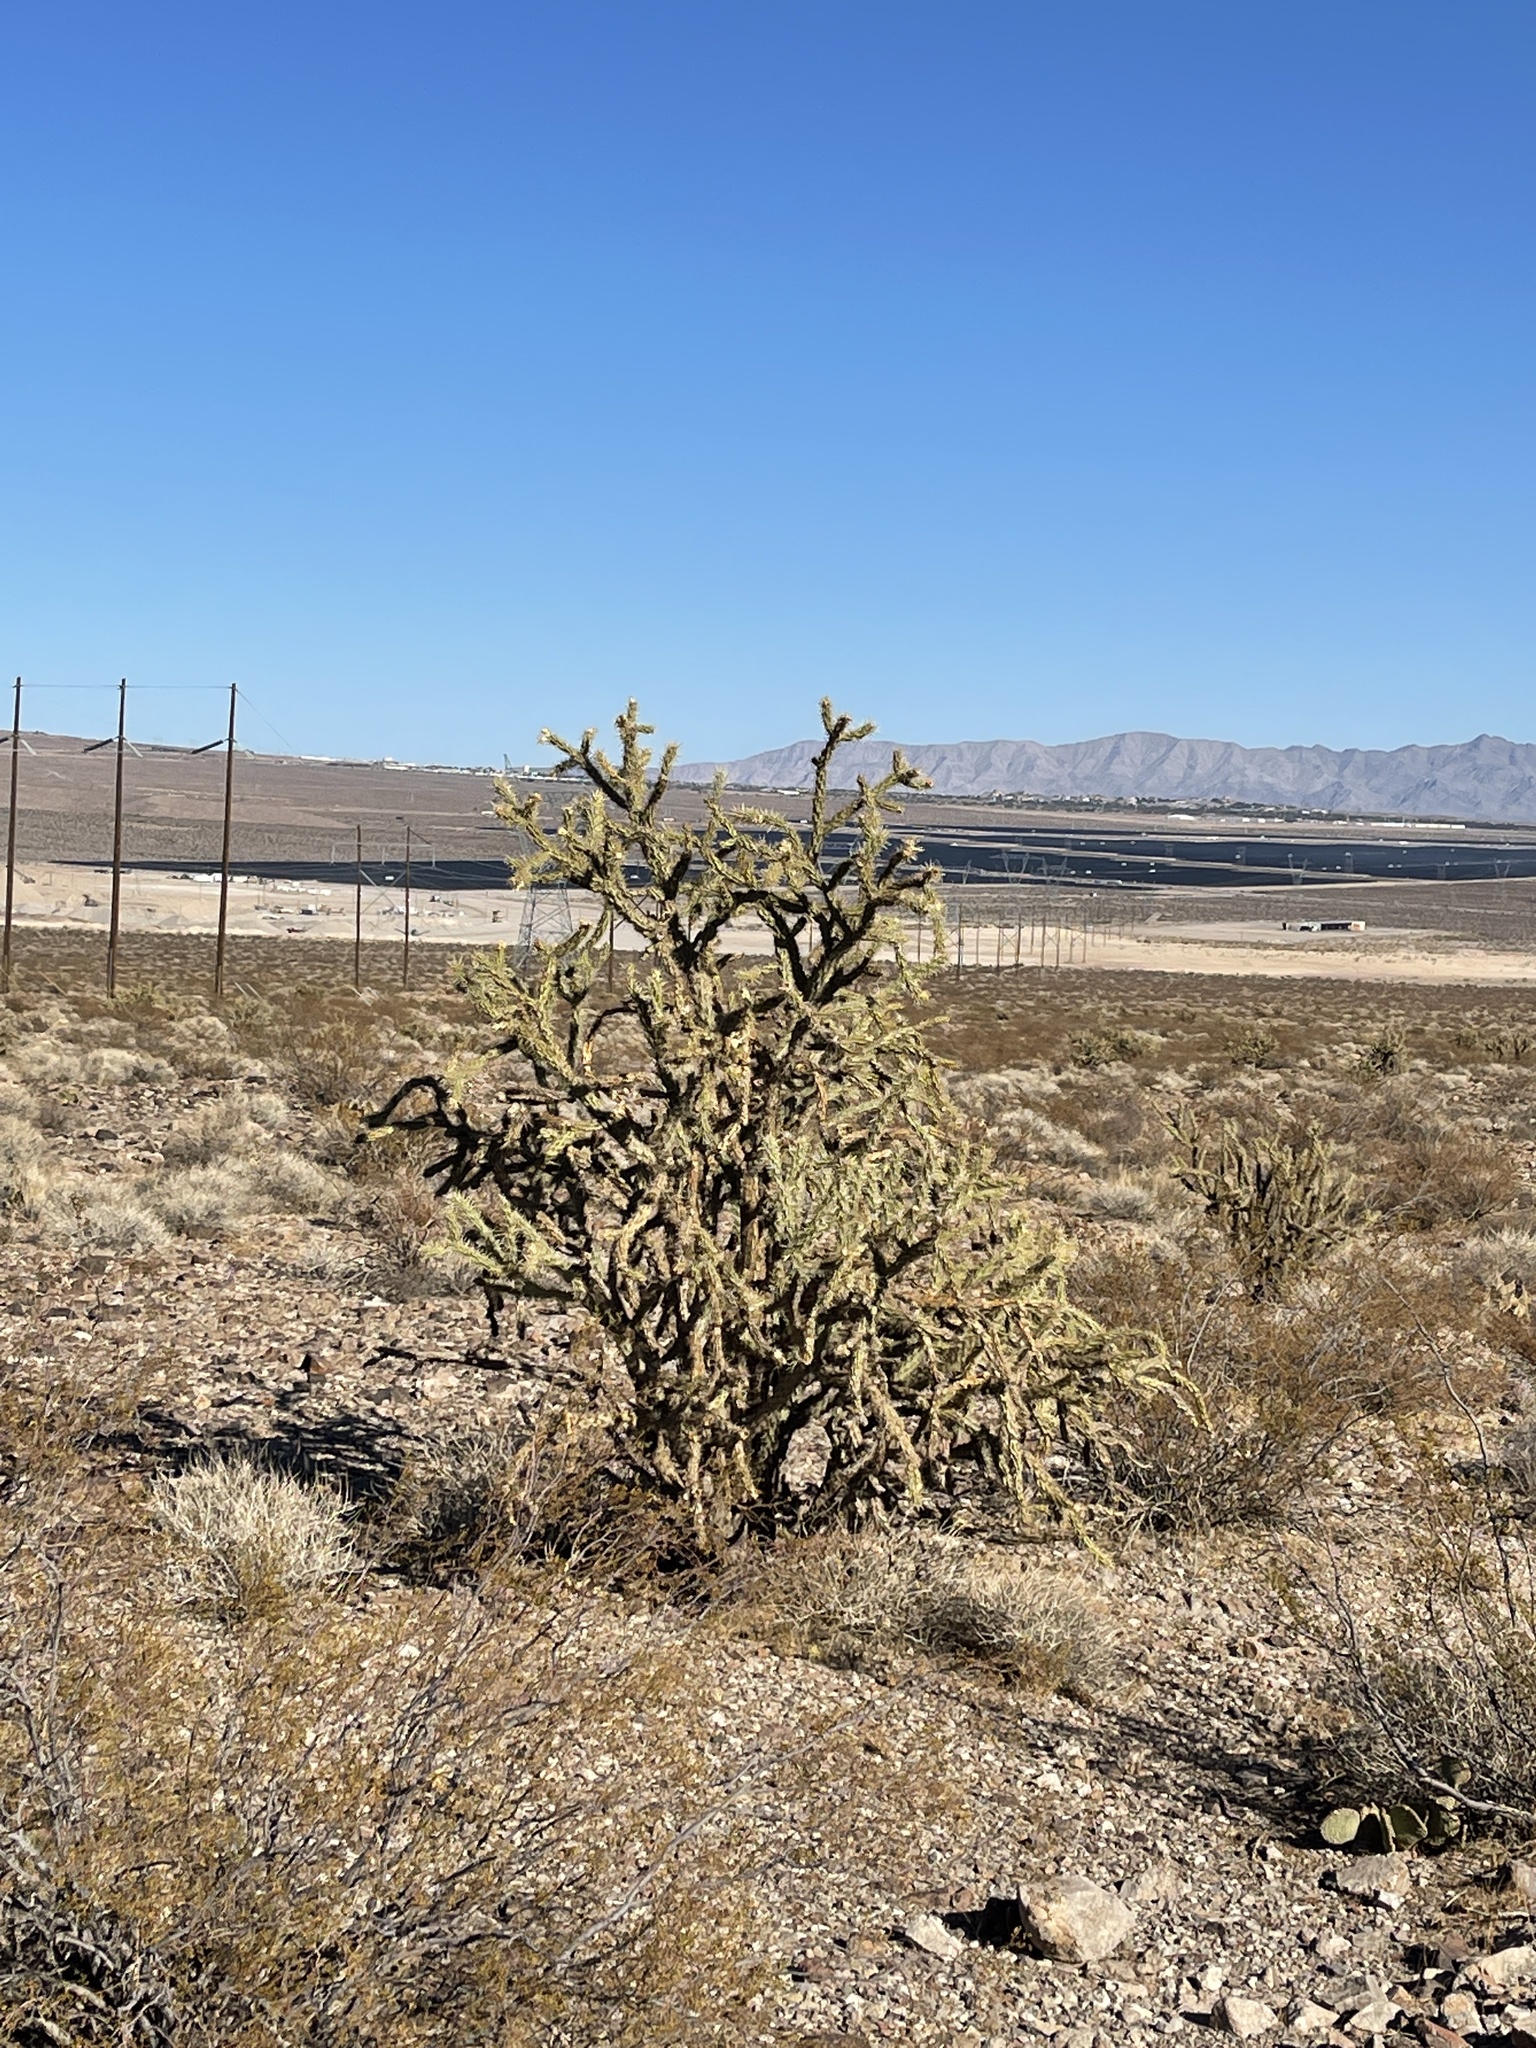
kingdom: Plantae
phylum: Tracheophyta
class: Magnoliopsida
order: Caryophyllales
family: Cactaceae
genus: Cylindropuntia
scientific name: Cylindropuntia acanthocarpa
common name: Buckhorn cholla
